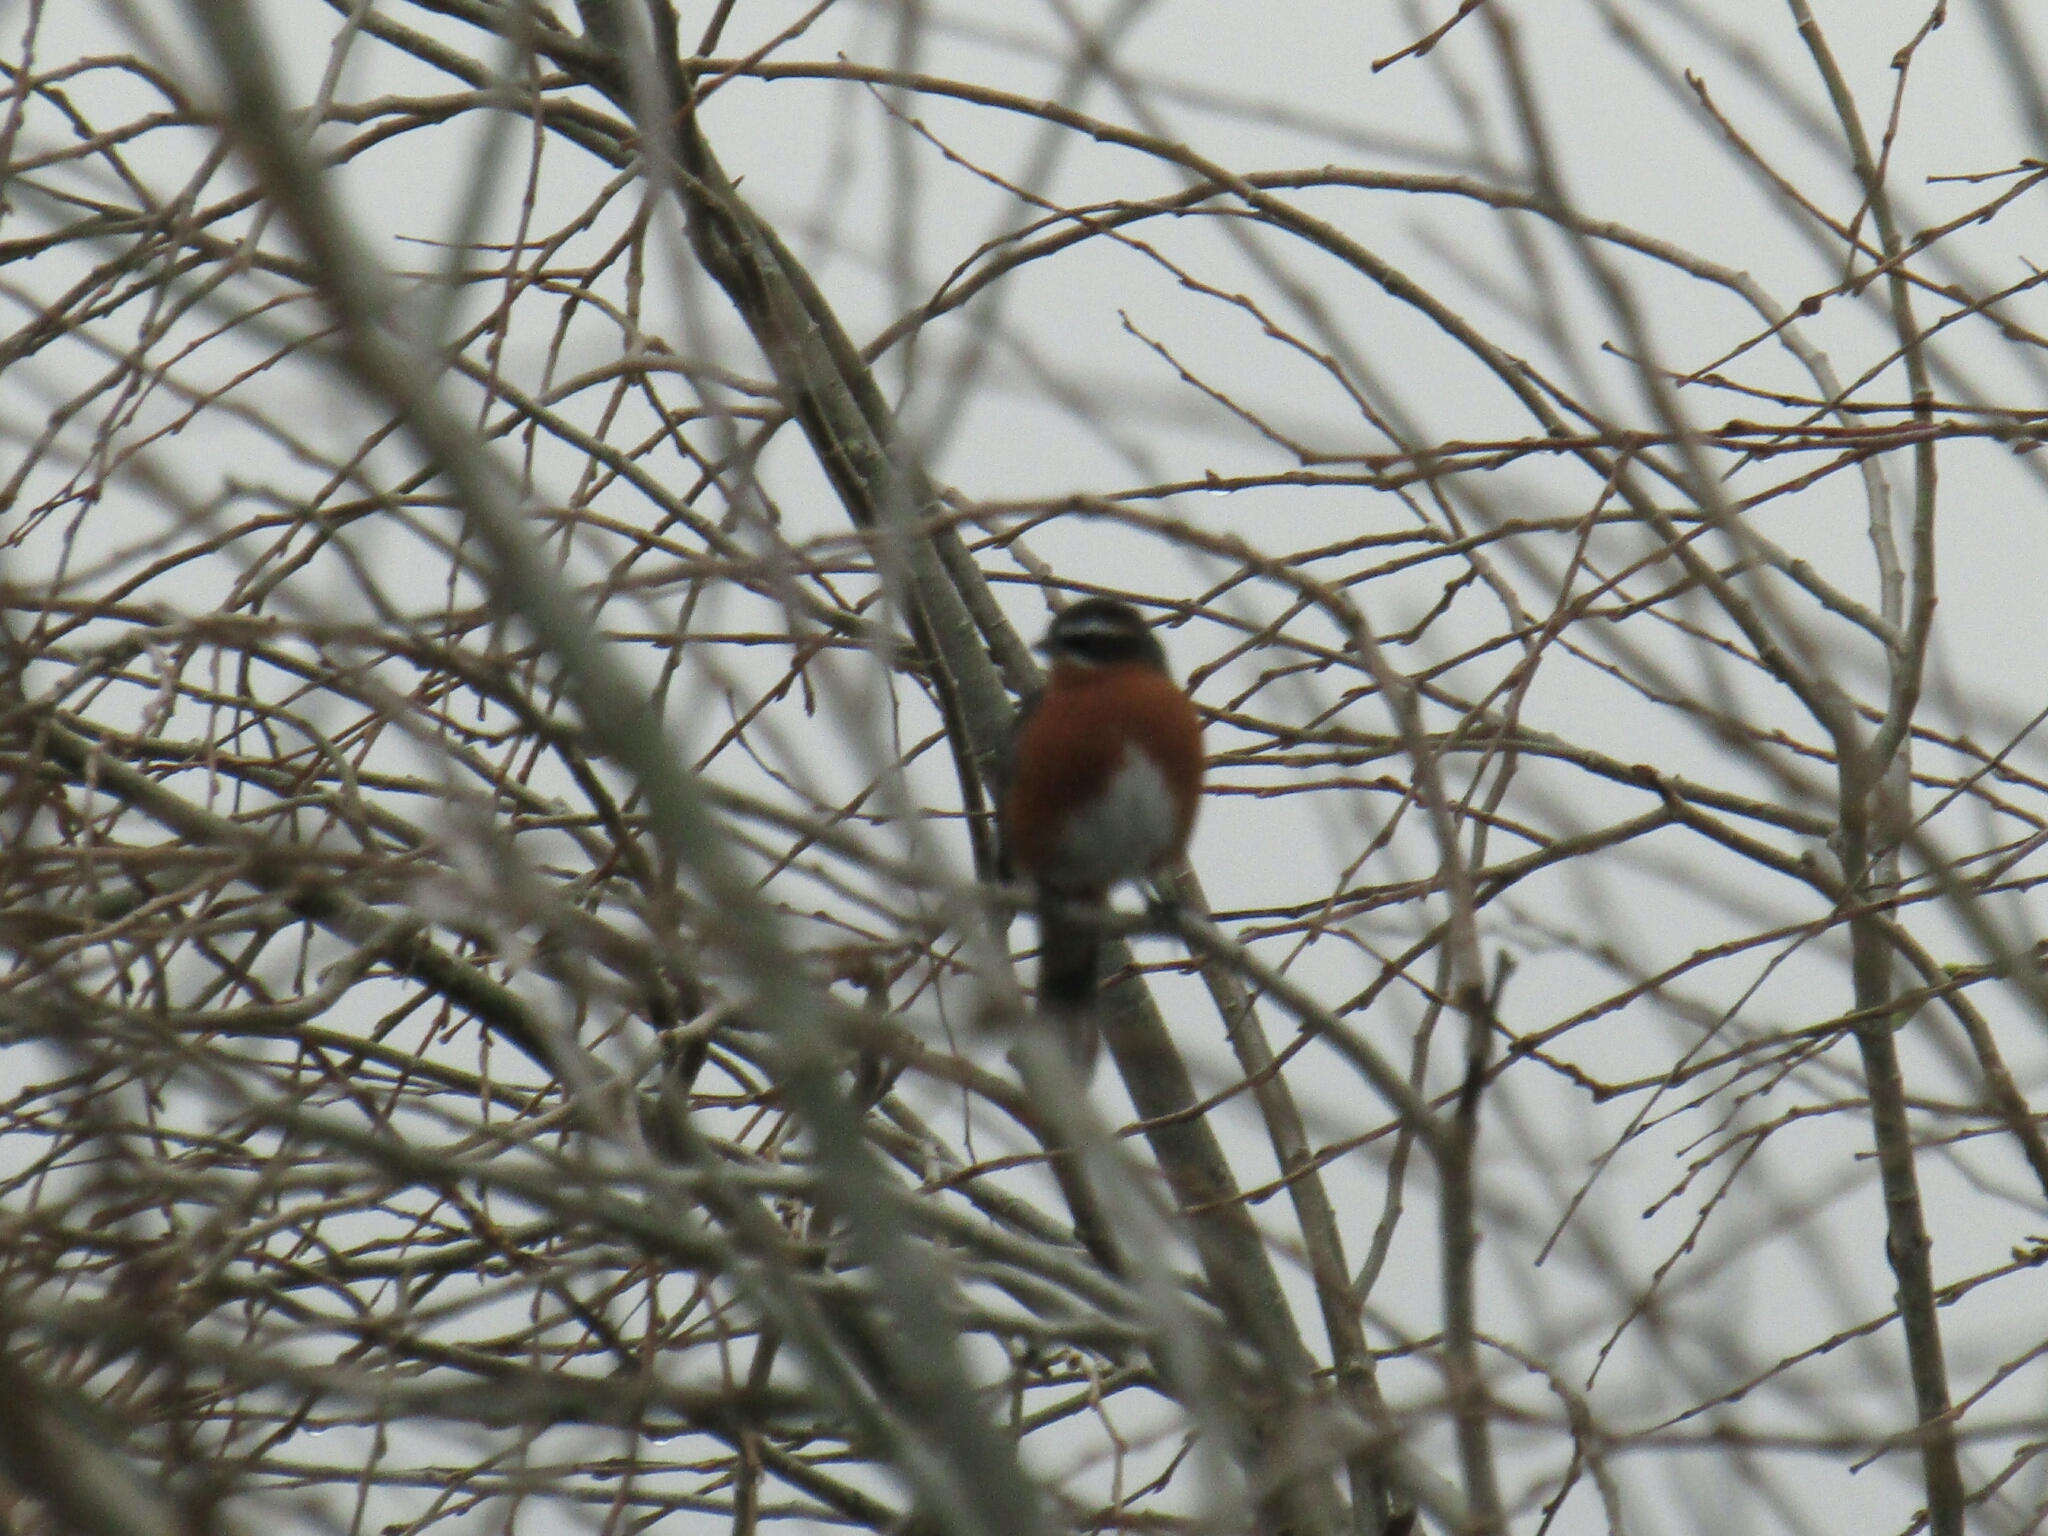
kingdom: Animalia
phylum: Chordata
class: Aves
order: Passeriformes
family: Thraupidae
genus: Poospiza
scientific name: Poospiza nigrorufa
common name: Black-and-rufous warbling finch
